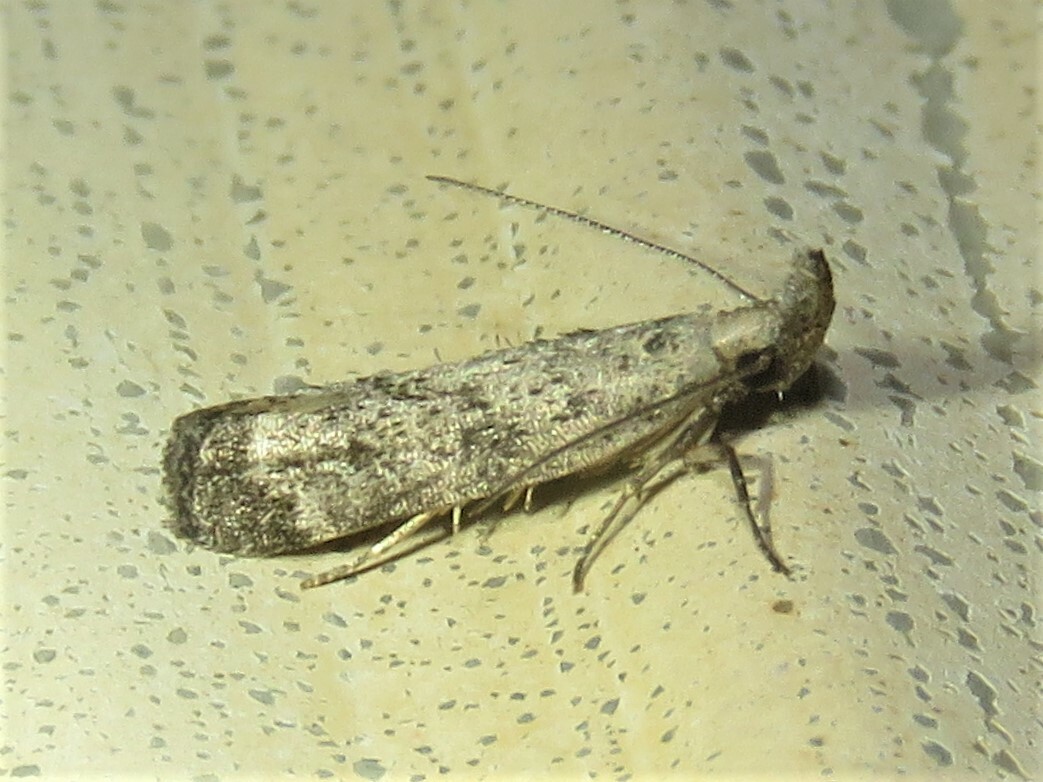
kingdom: Animalia
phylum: Arthropoda
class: Insecta
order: Lepidoptera
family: Gelechiidae
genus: Dichomeris
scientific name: Dichomeris inversella
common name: Inverse dichomeris moth
